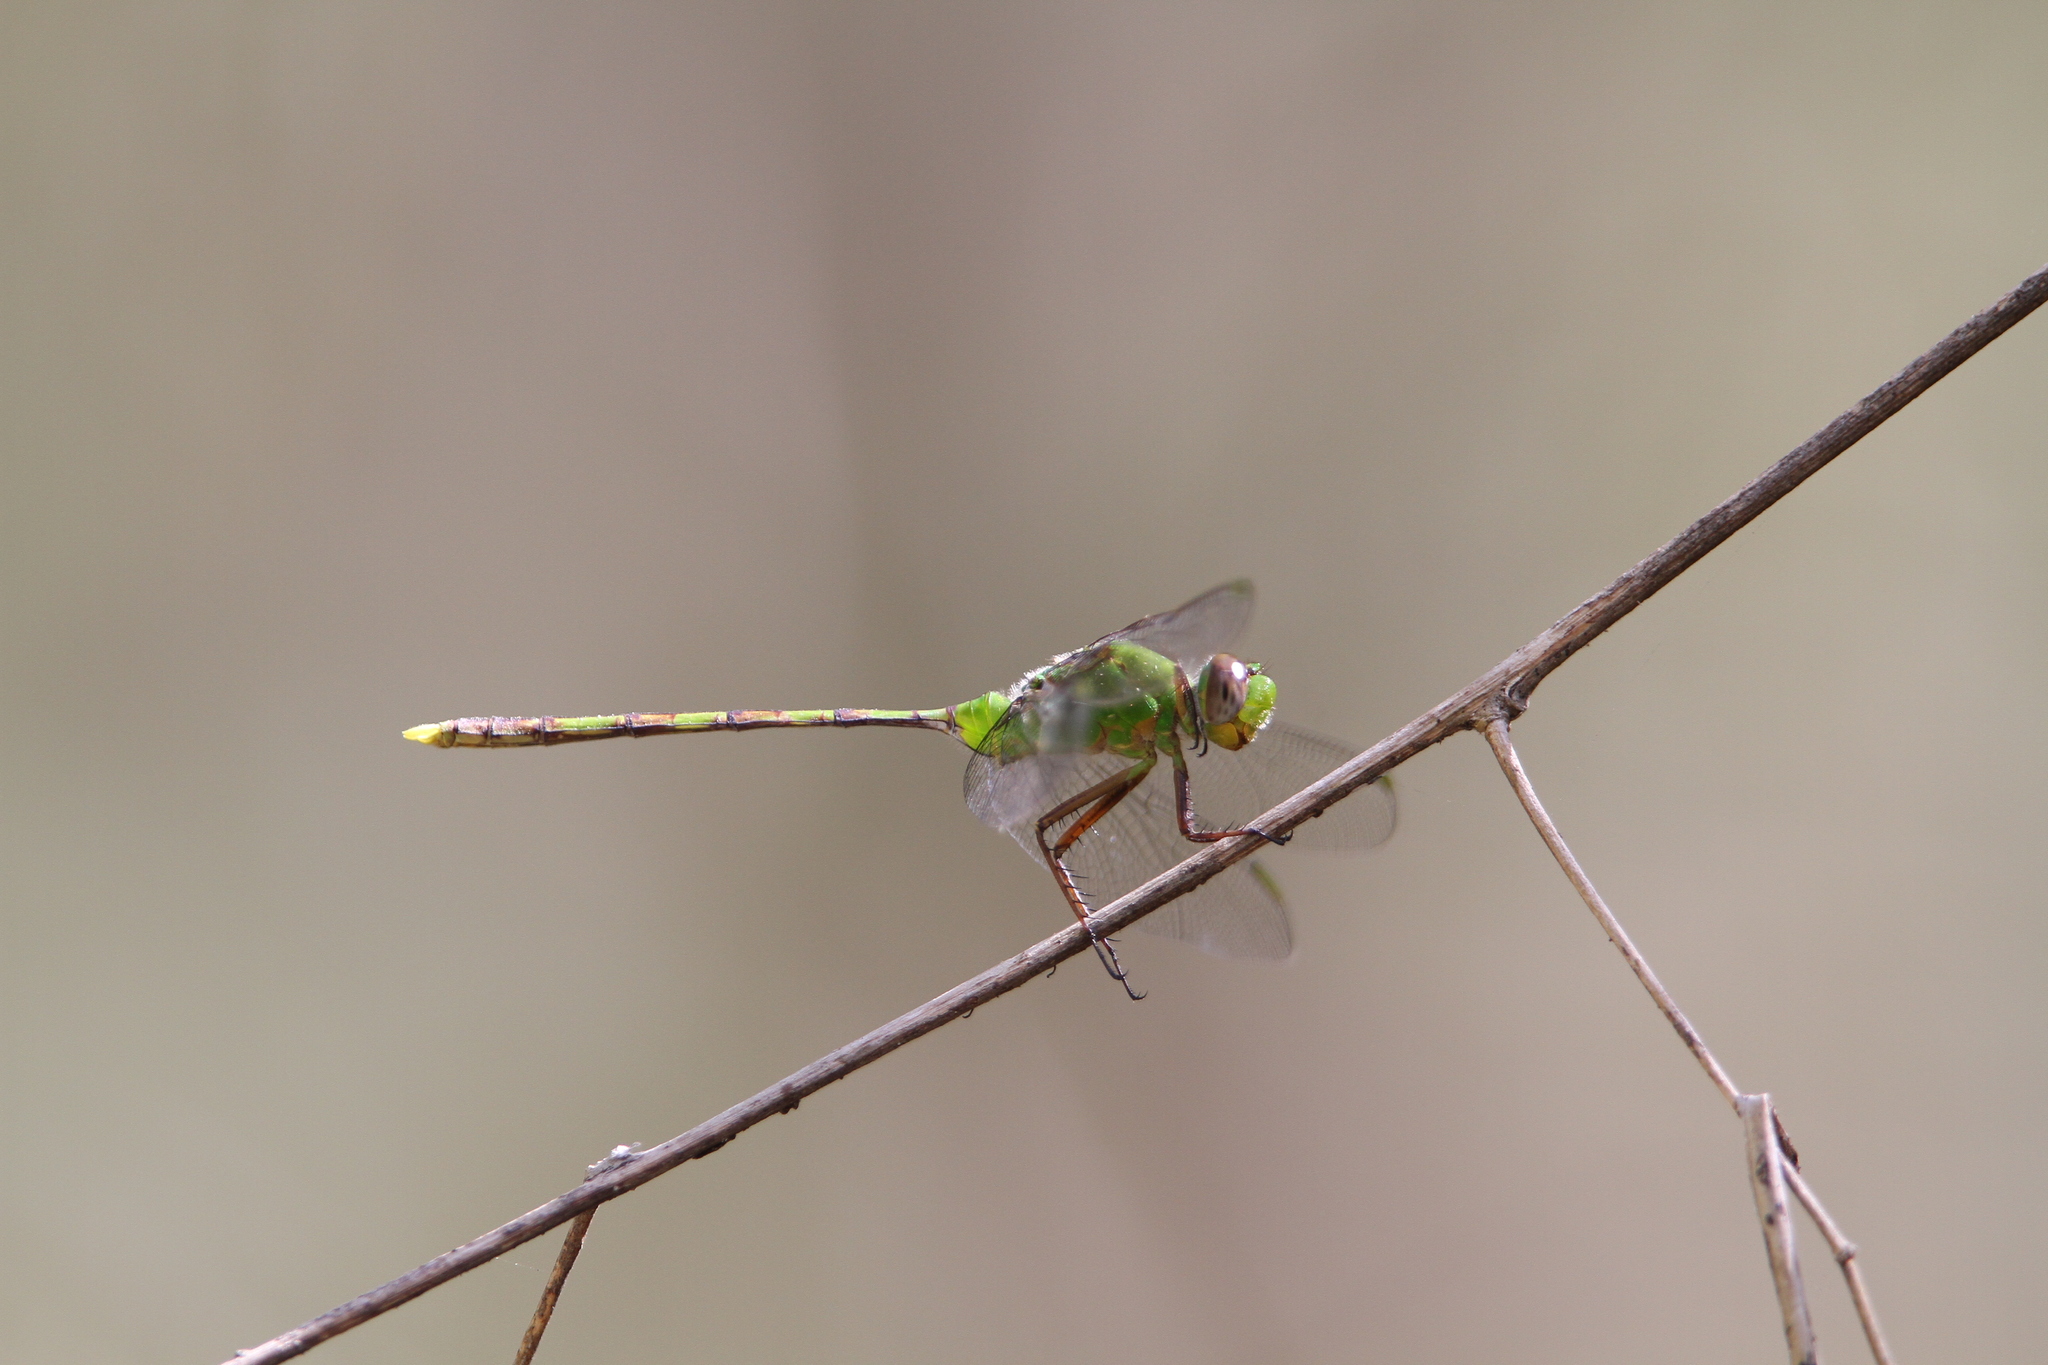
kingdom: Animalia
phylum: Arthropoda
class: Insecta
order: Odonata
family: Libellulidae
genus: Erythemis
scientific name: Erythemis vesiculosa
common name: Great pondhawk
